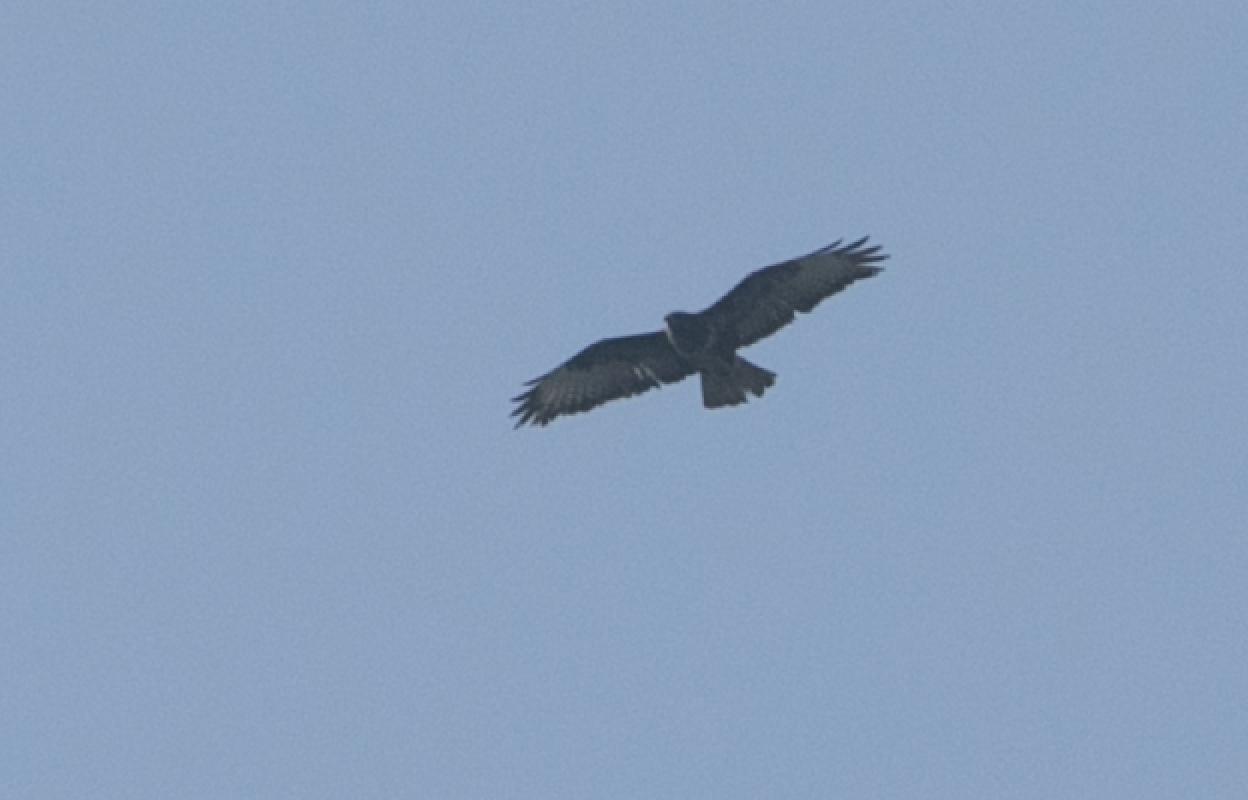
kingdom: Animalia
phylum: Chordata
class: Aves
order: Accipitriformes
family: Accipitridae
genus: Buteo
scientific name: Buteo buteo
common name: Common buzzard
